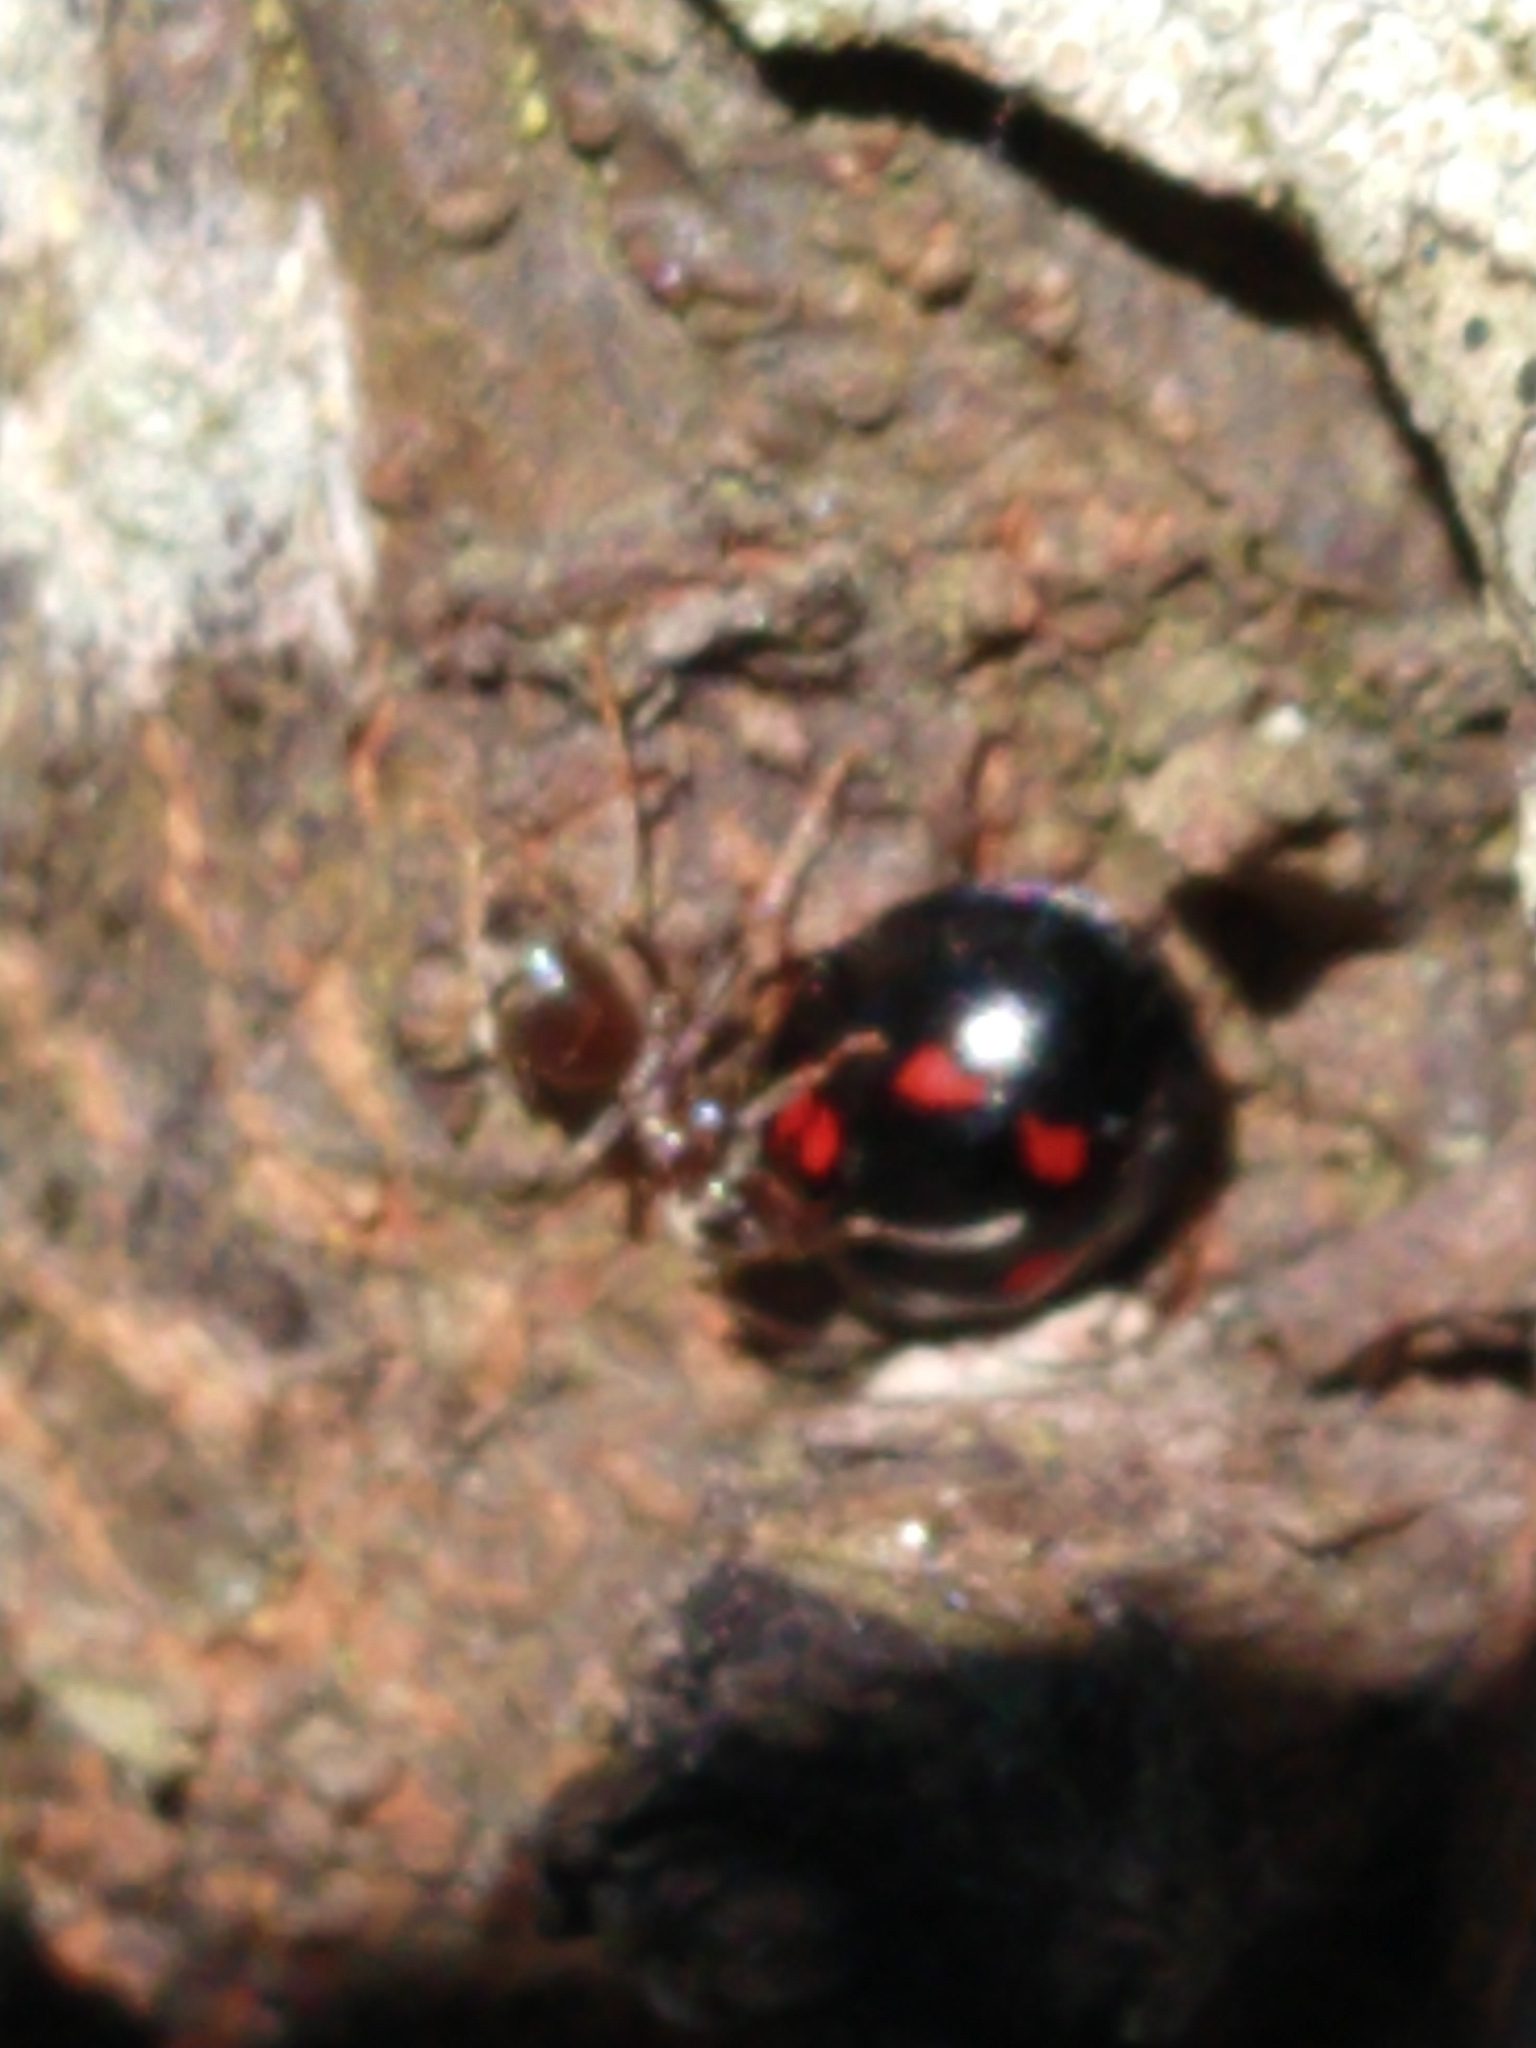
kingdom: Animalia
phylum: Arthropoda
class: Insecta
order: Coleoptera
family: Coccinellidae
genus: Brumus
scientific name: Brumus quadripustulatus
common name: Ladybird beetle
